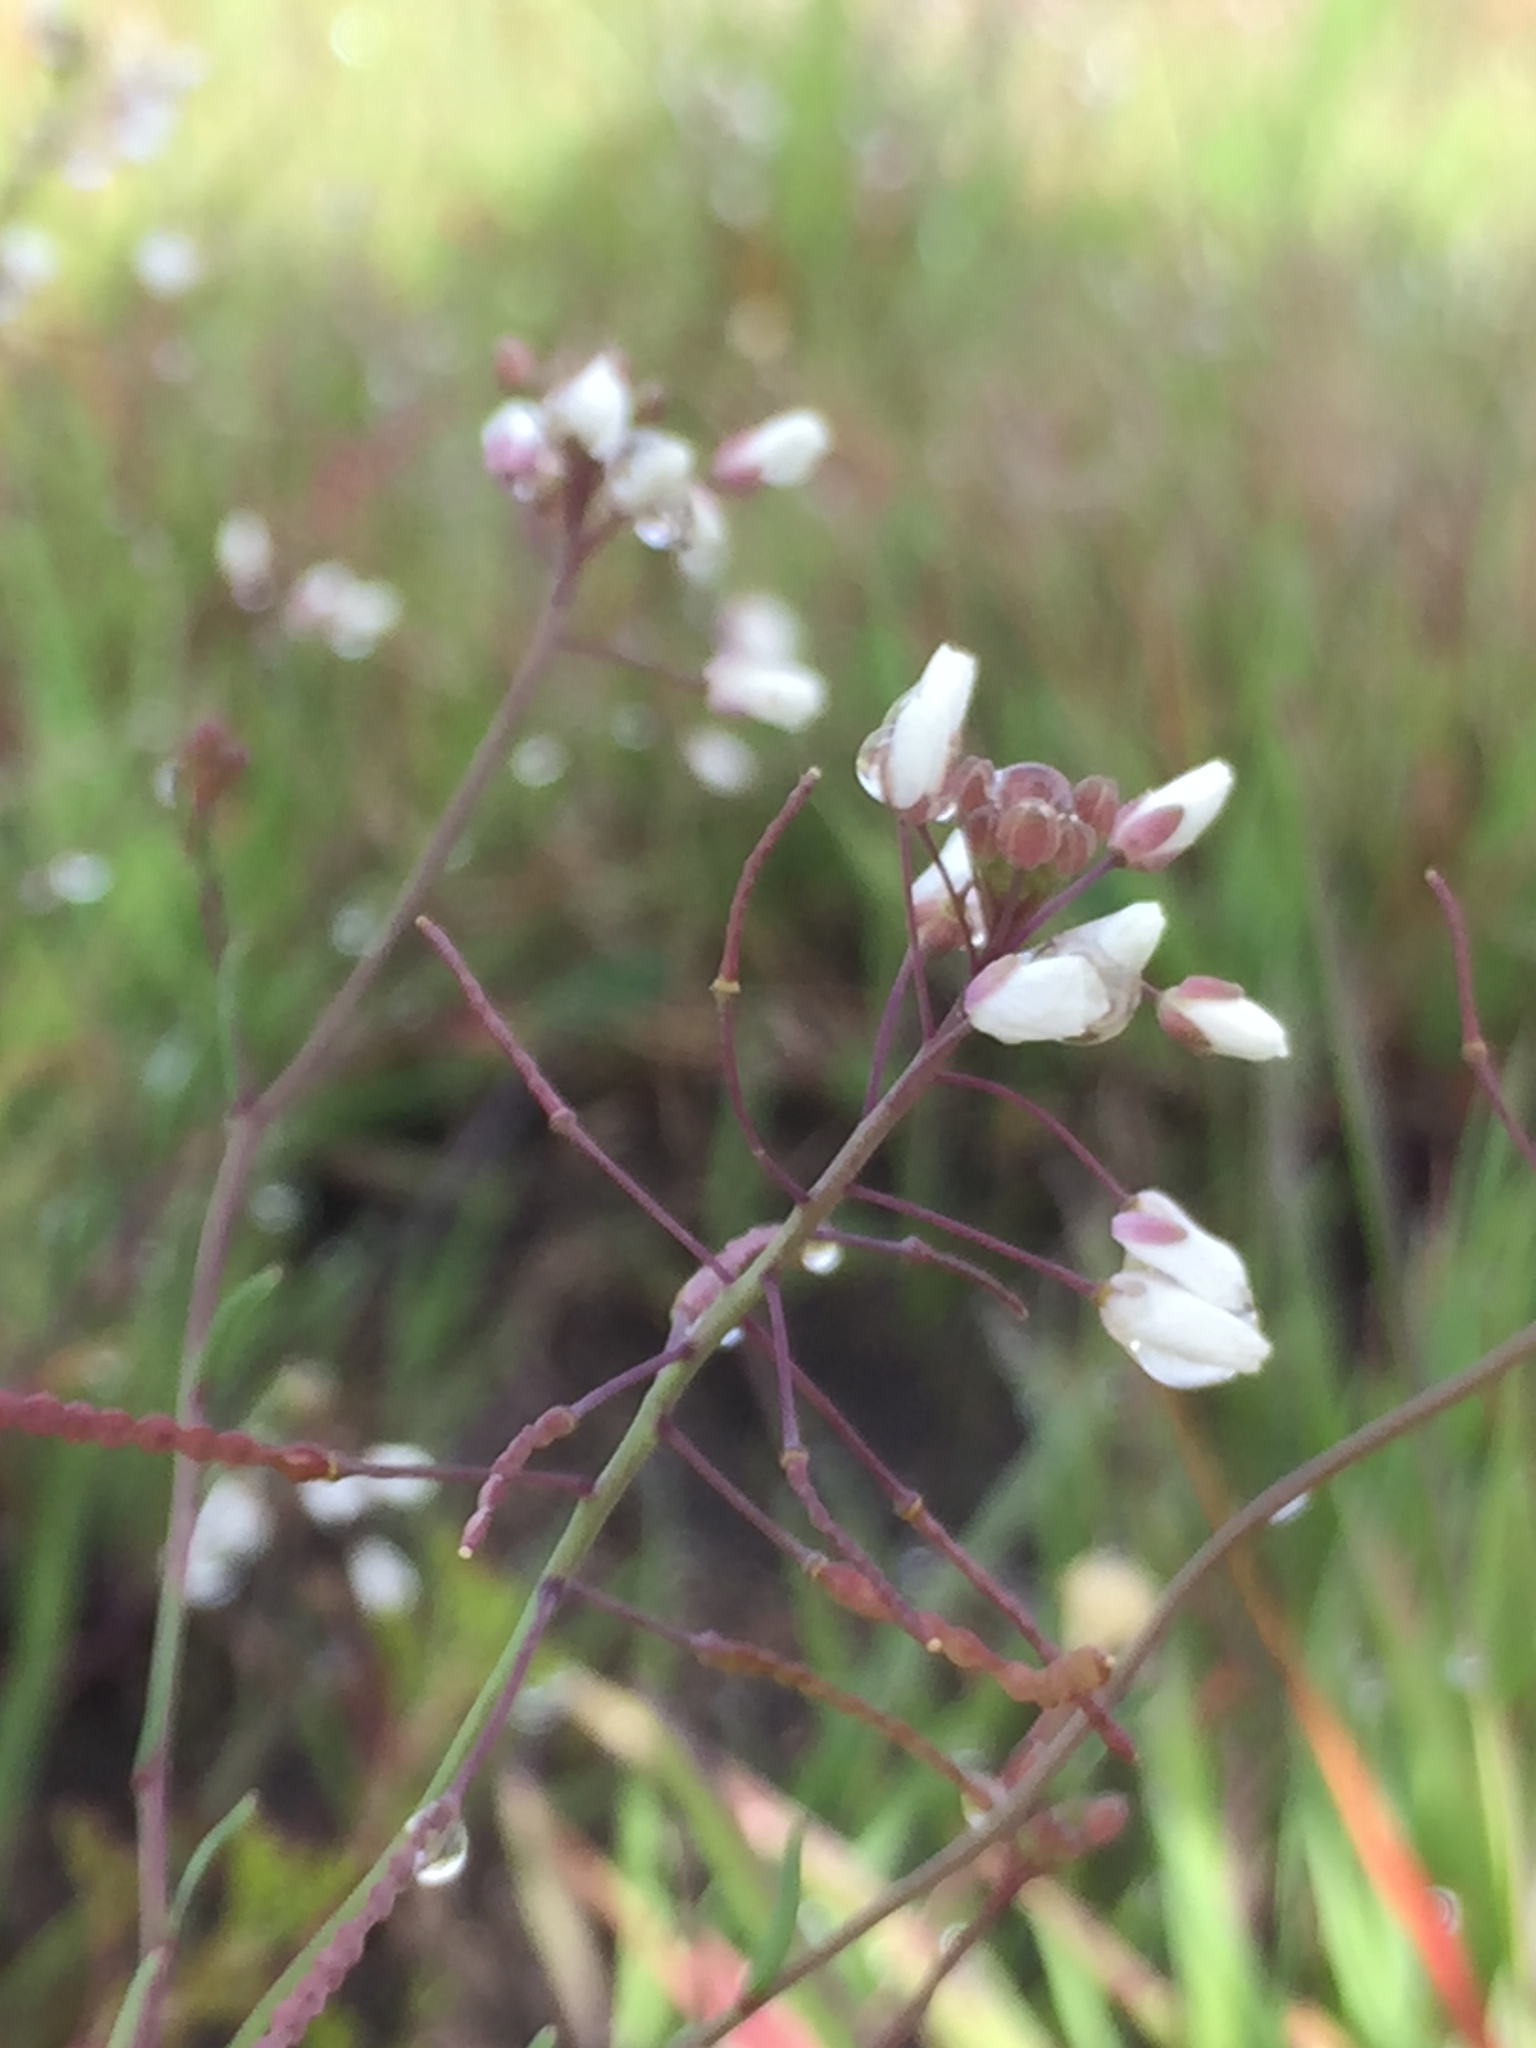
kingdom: Plantae
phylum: Tracheophyta
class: Magnoliopsida
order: Brassicales
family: Brassicaceae
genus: Heliophila
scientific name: Heliophila pusilla
